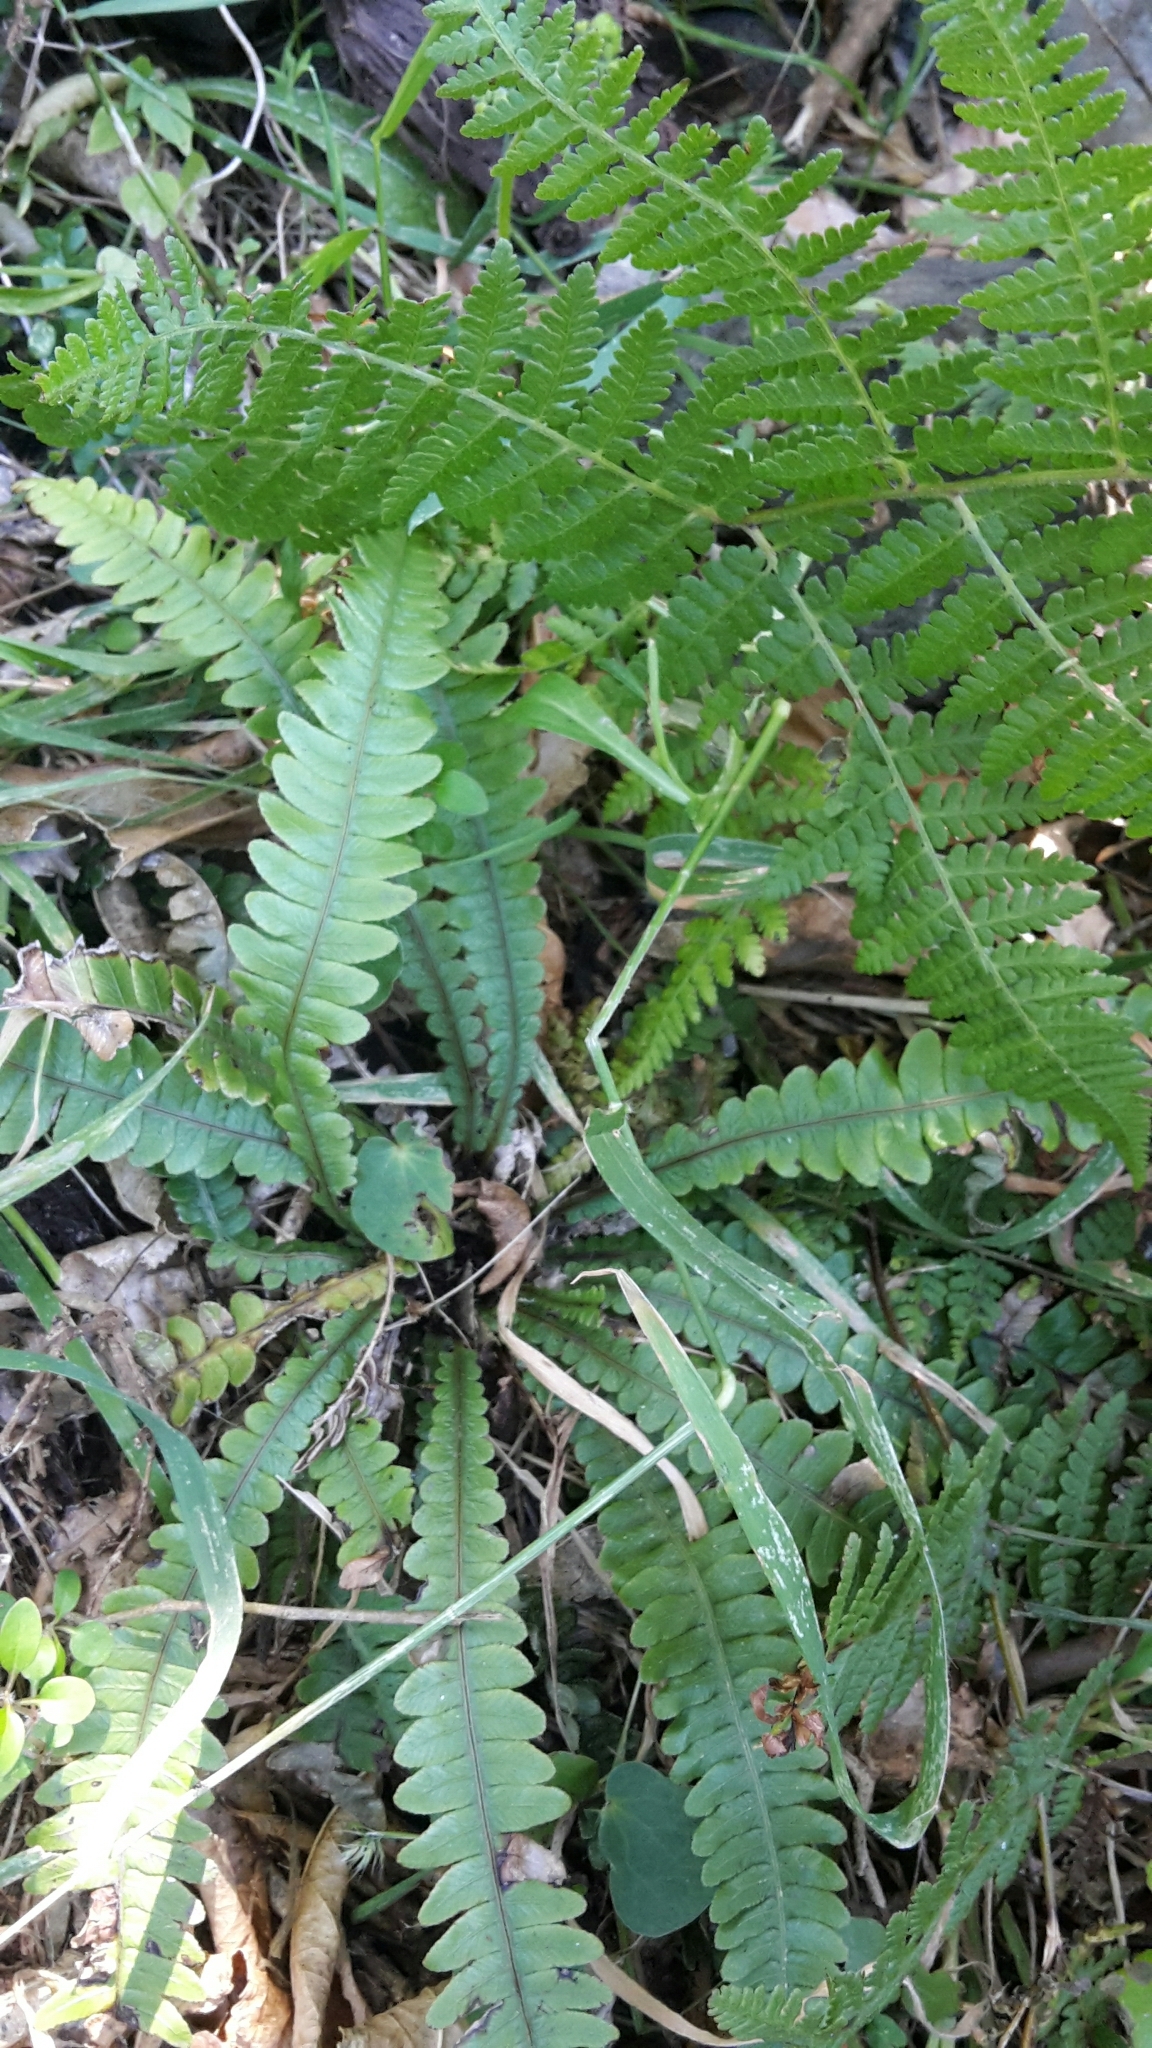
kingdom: Plantae
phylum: Tracheophyta
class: Polypodiopsida
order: Polypodiales
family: Blechnaceae
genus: Austroblechnum
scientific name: Austroblechnum lanceolatum
